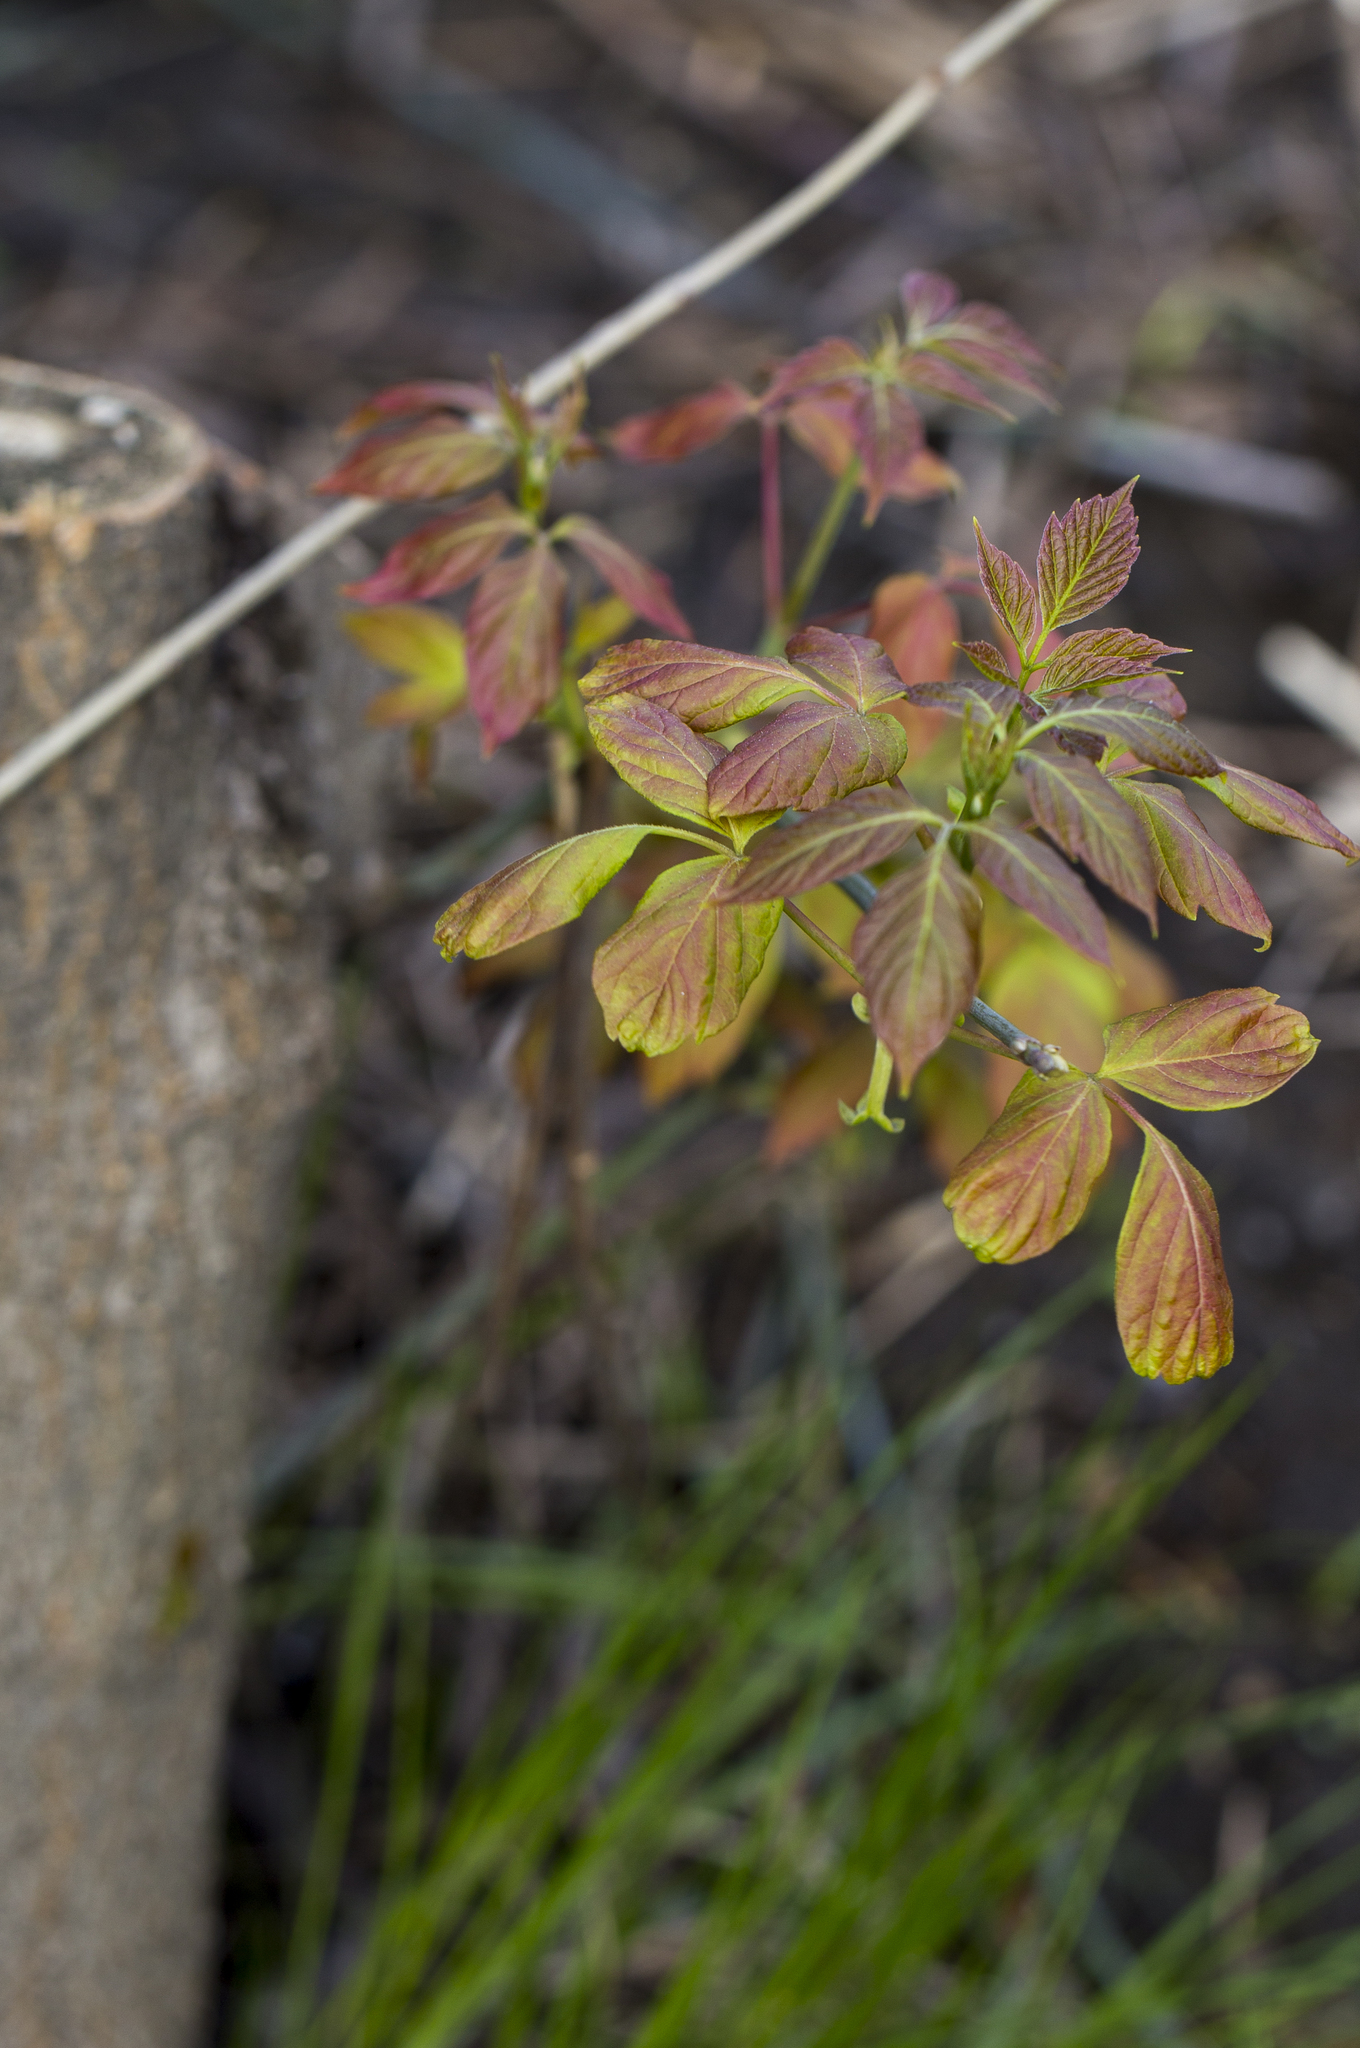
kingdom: Plantae
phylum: Tracheophyta
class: Magnoliopsida
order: Sapindales
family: Sapindaceae
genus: Acer
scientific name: Acer negundo
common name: Ashleaf maple
